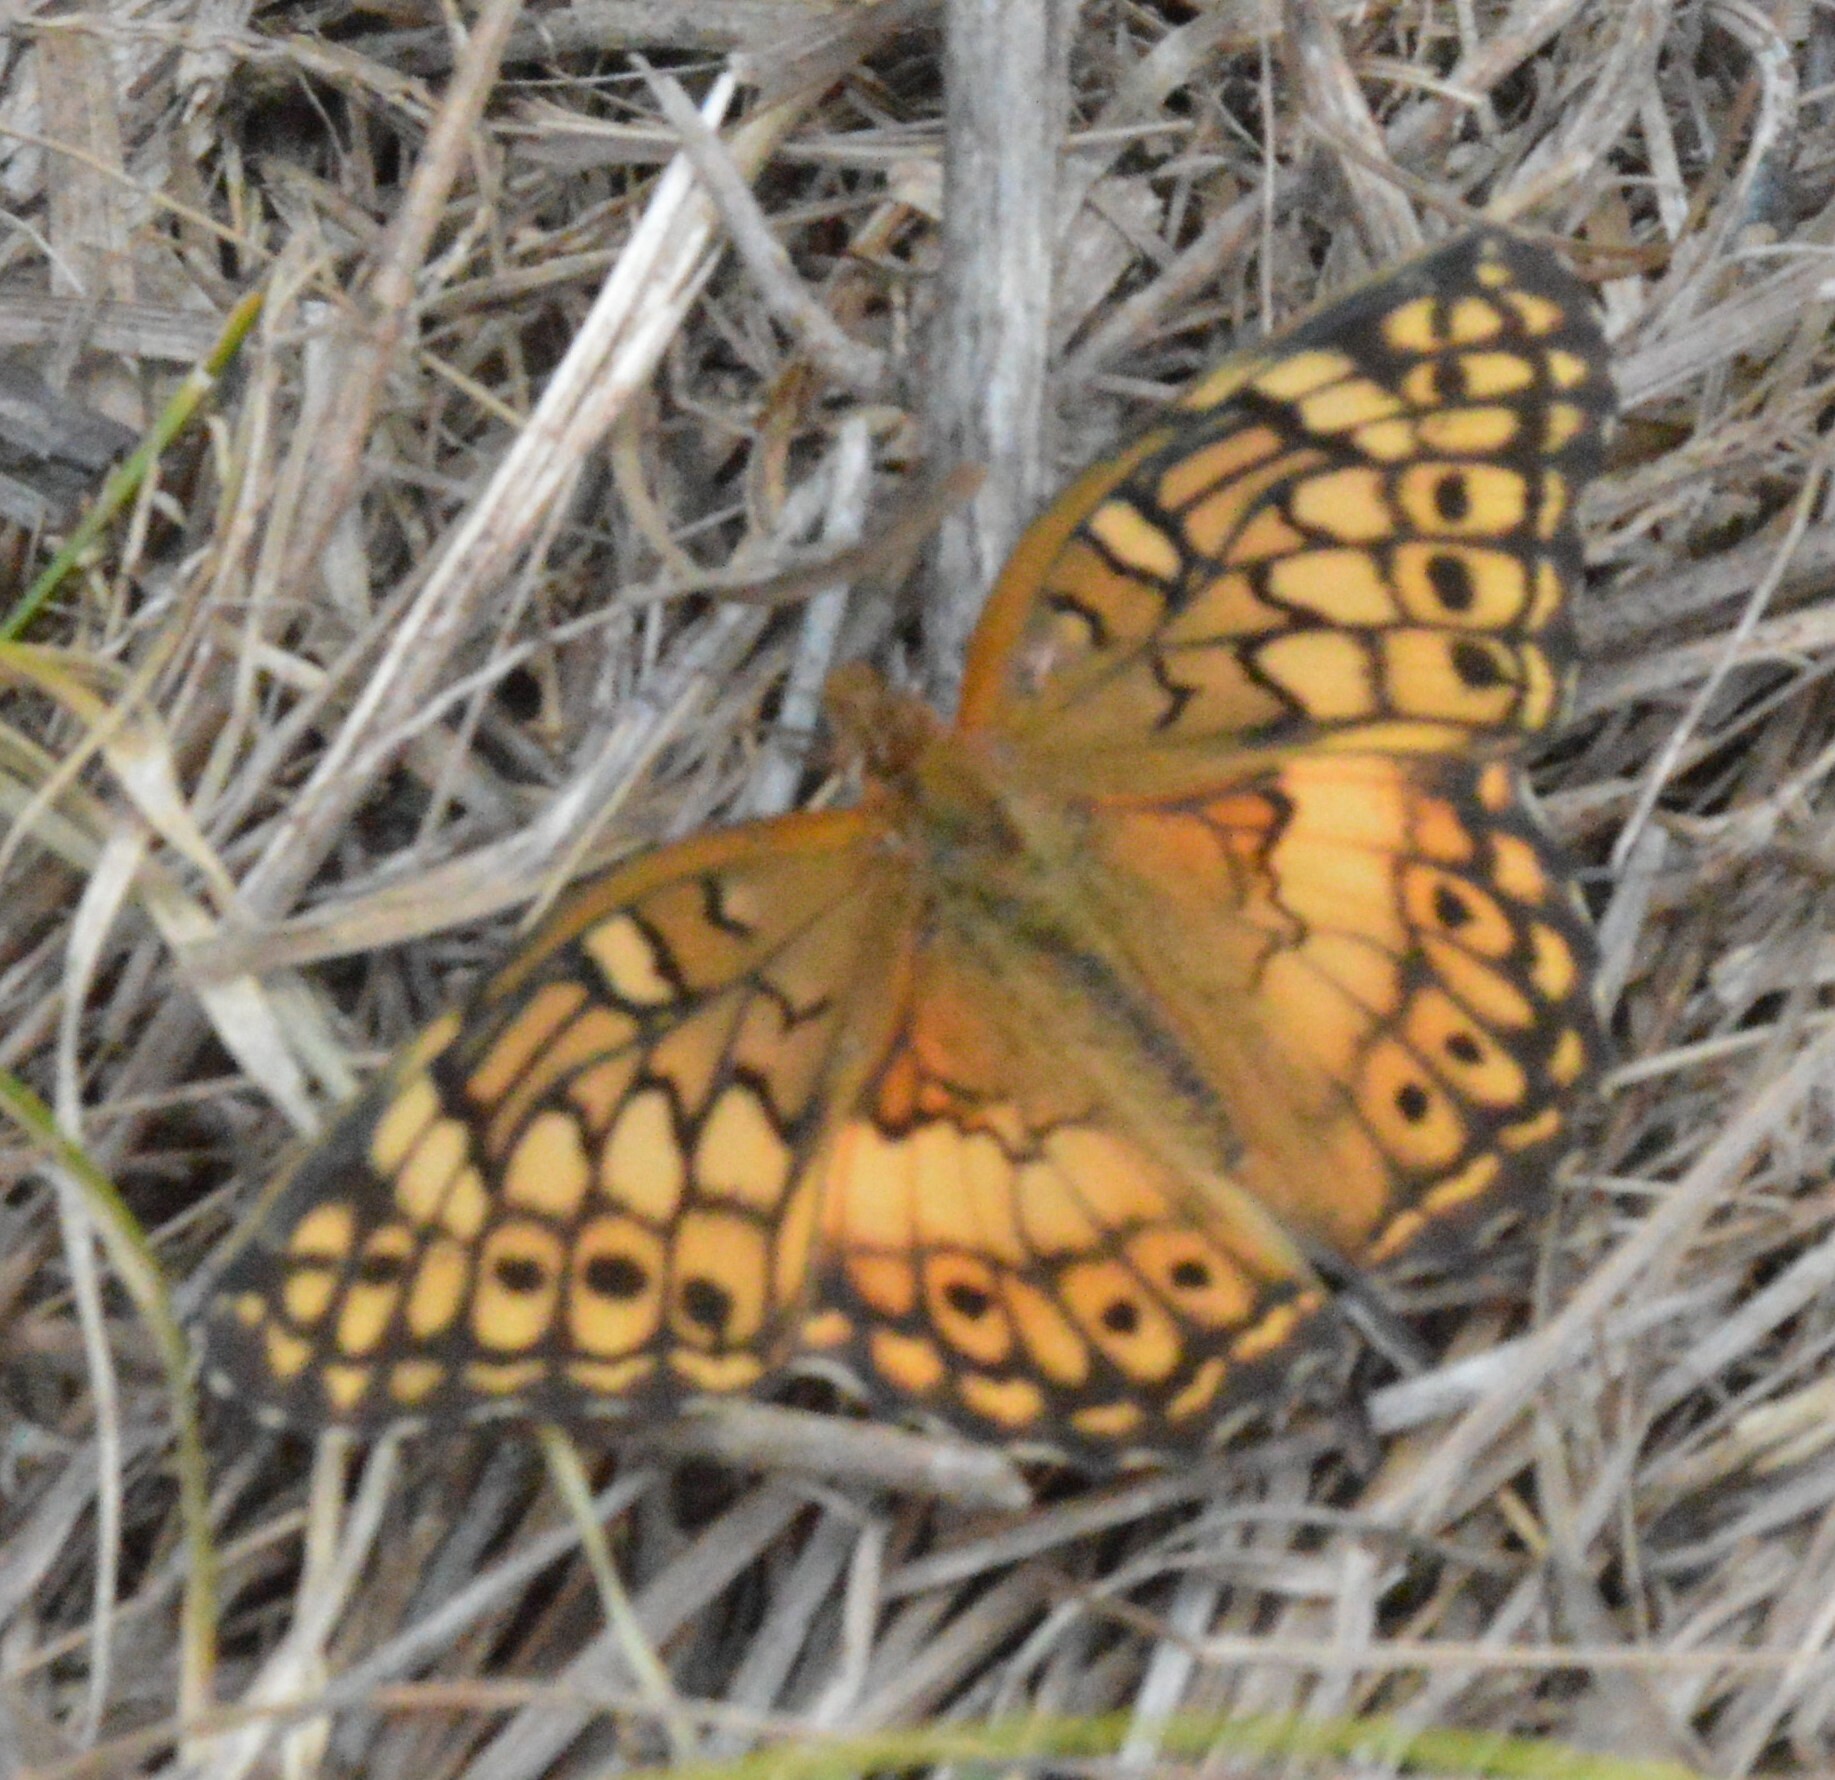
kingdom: Animalia
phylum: Arthropoda
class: Insecta
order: Lepidoptera
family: Nymphalidae
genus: Euptoieta
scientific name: Euptoieta claudia
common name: Variegated fritillary
